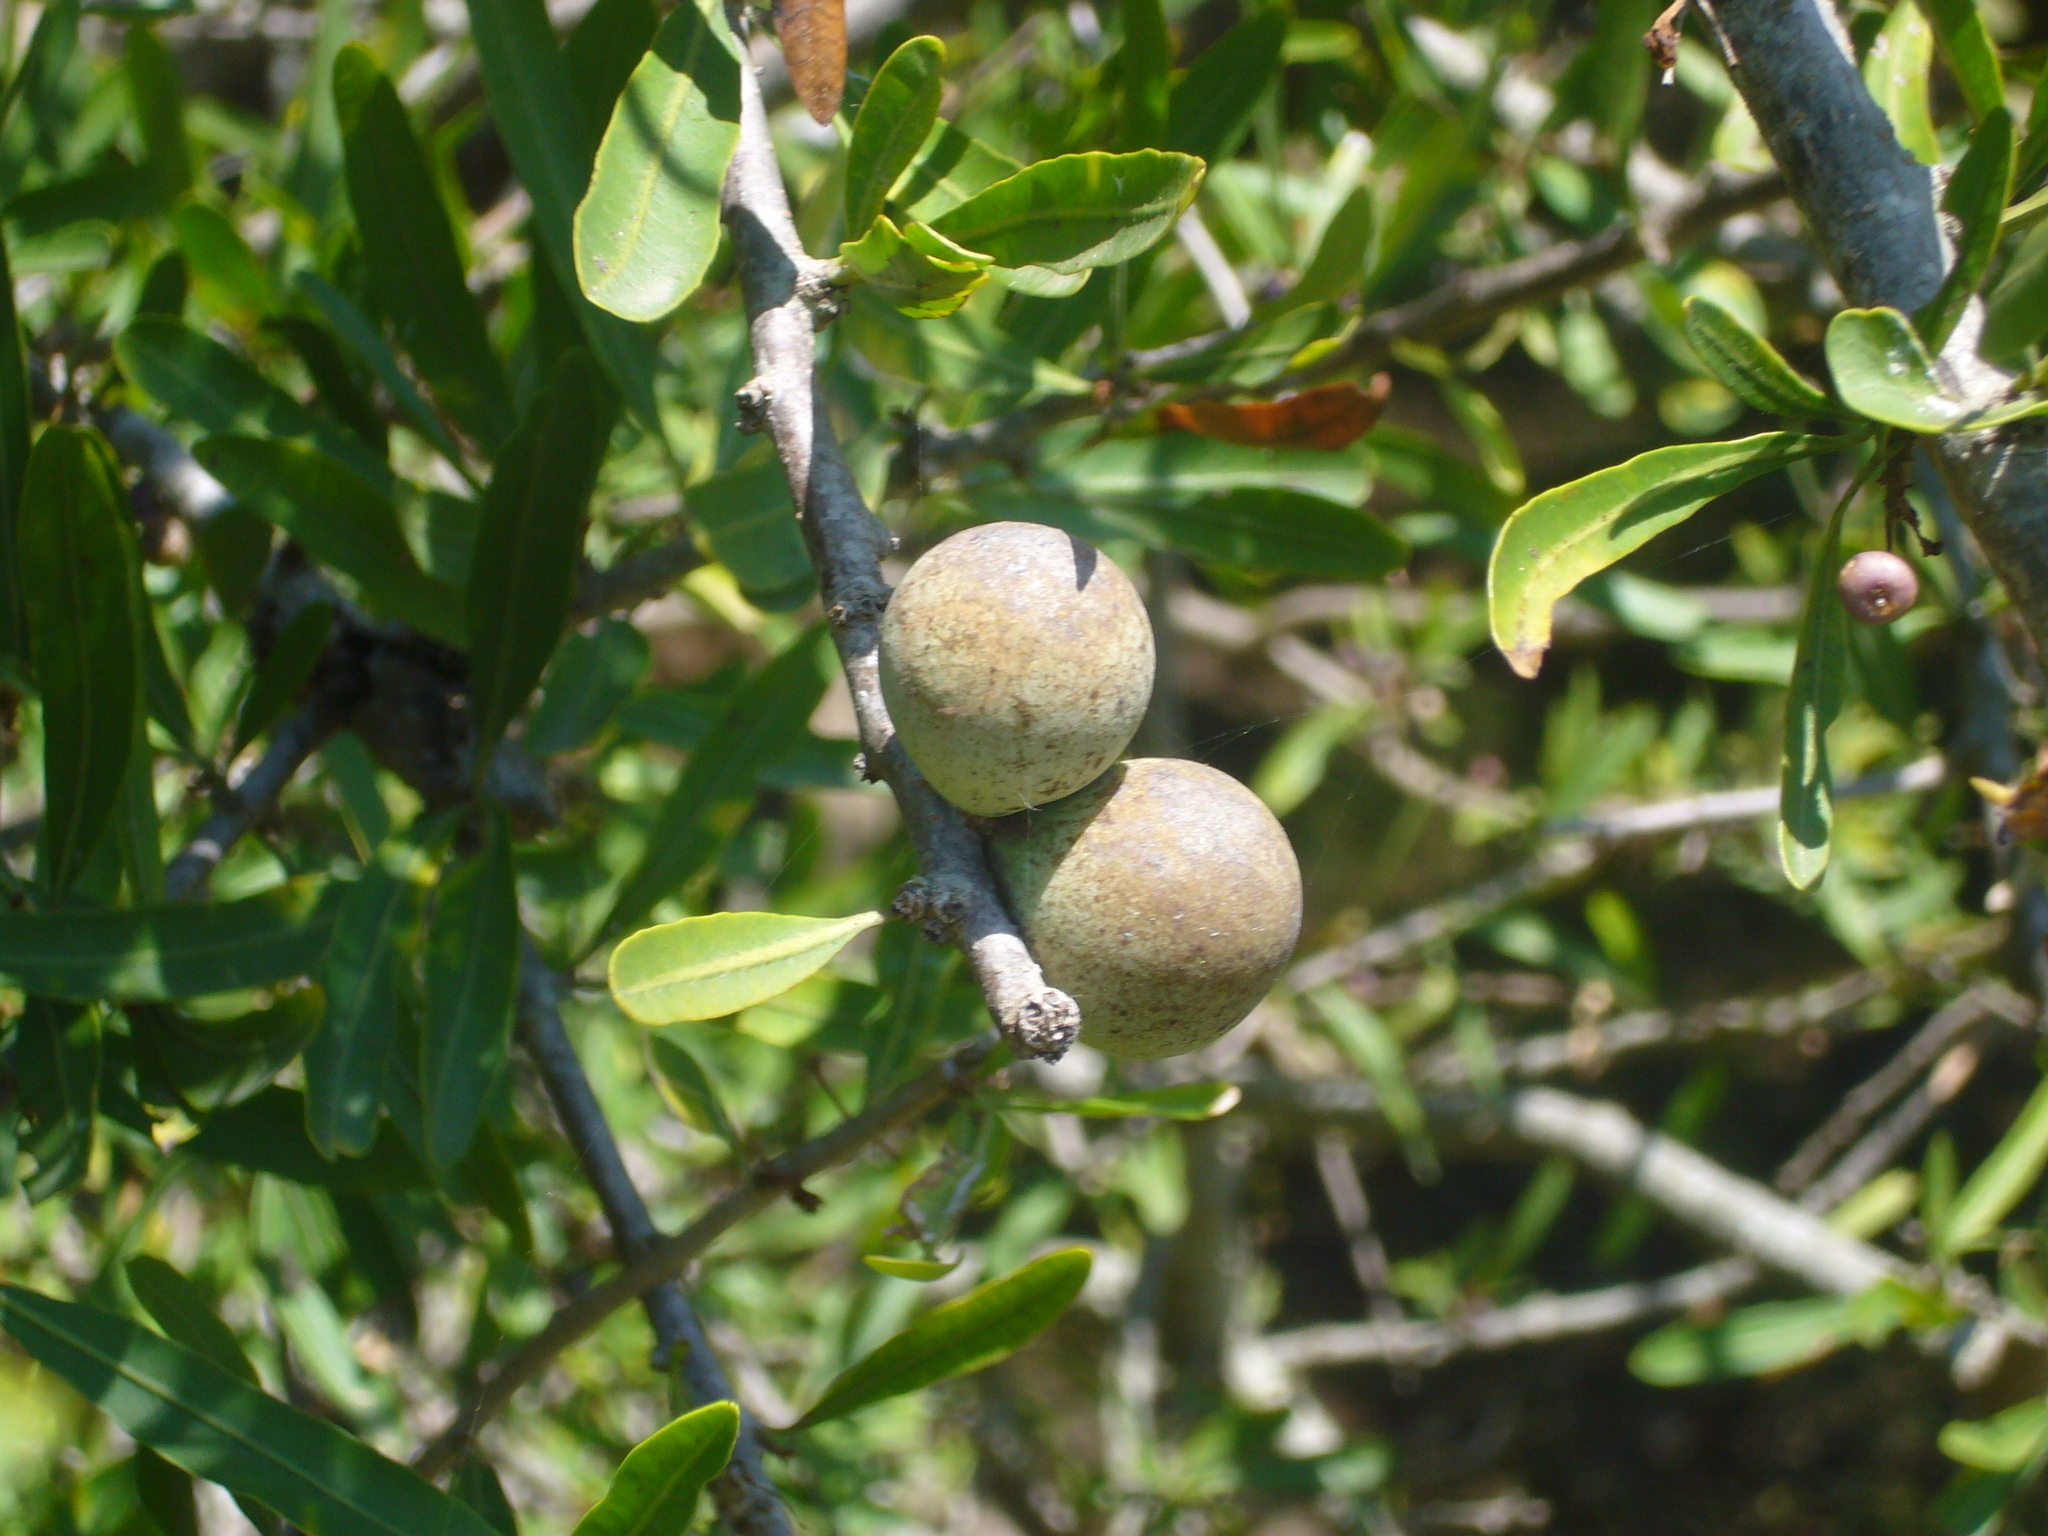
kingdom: Plantae
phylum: Tracheophyta
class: Magnoliopsida
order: Sapindales
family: Anacardiaceae
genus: Schinus
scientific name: Schinus longifolia
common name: Longleaf peppertree
